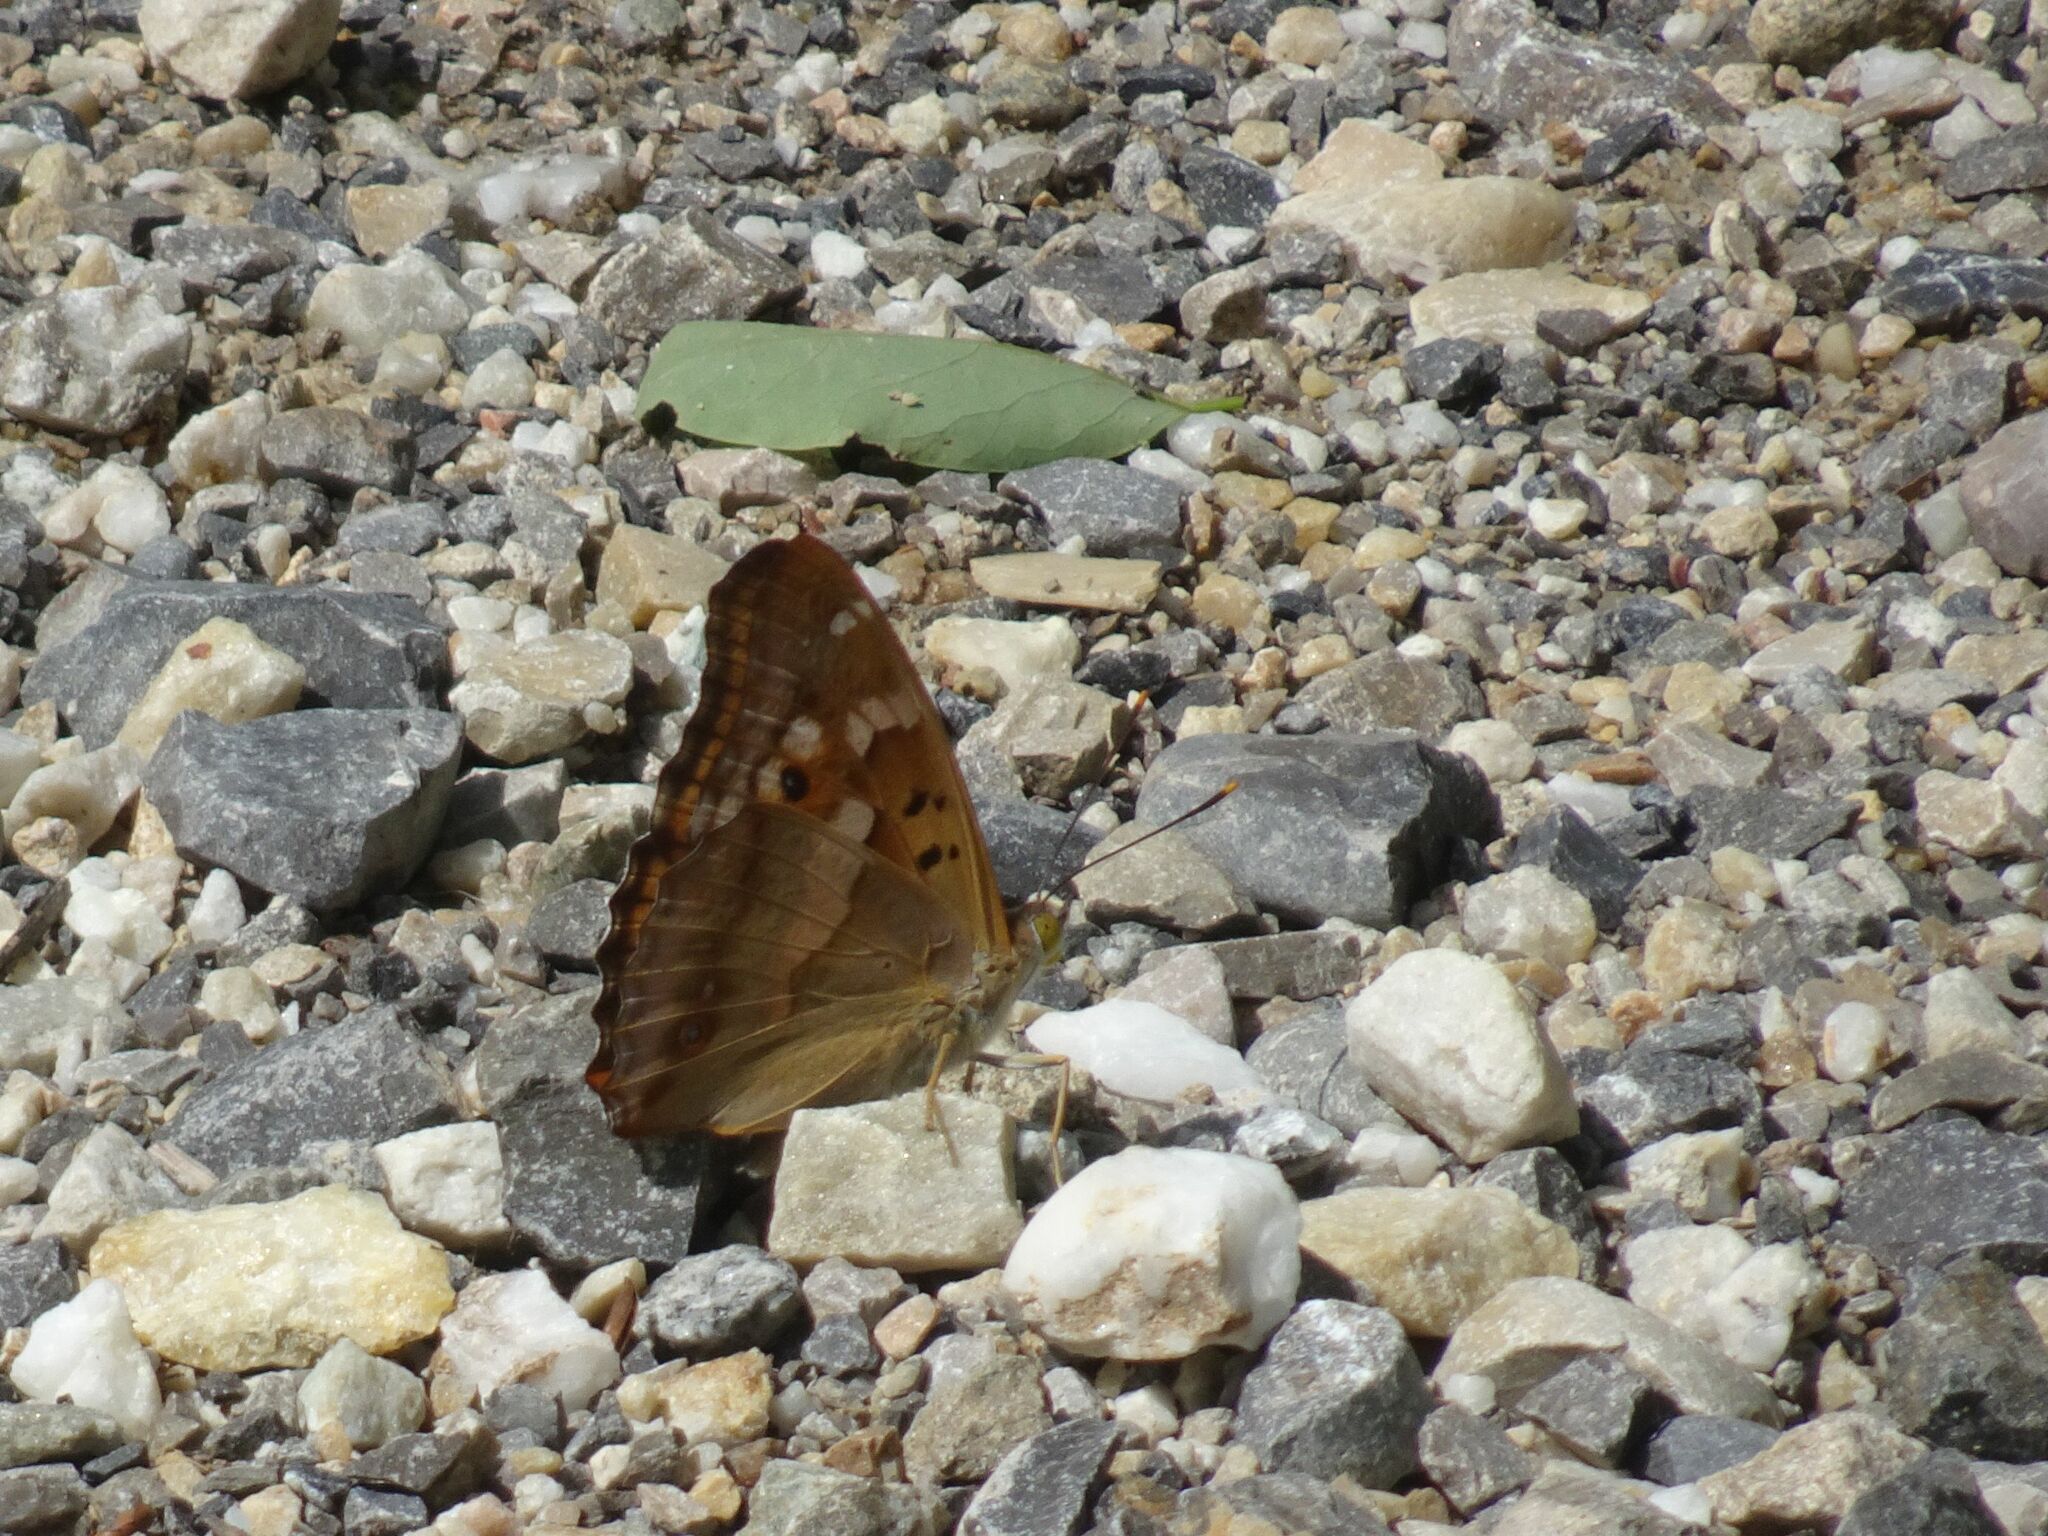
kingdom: Animalia
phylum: Arthropoda
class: Insecta
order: Lepidoptera
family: Nymphalidae
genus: Apatura
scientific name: Apatura ilia
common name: Lesser purple emperor
